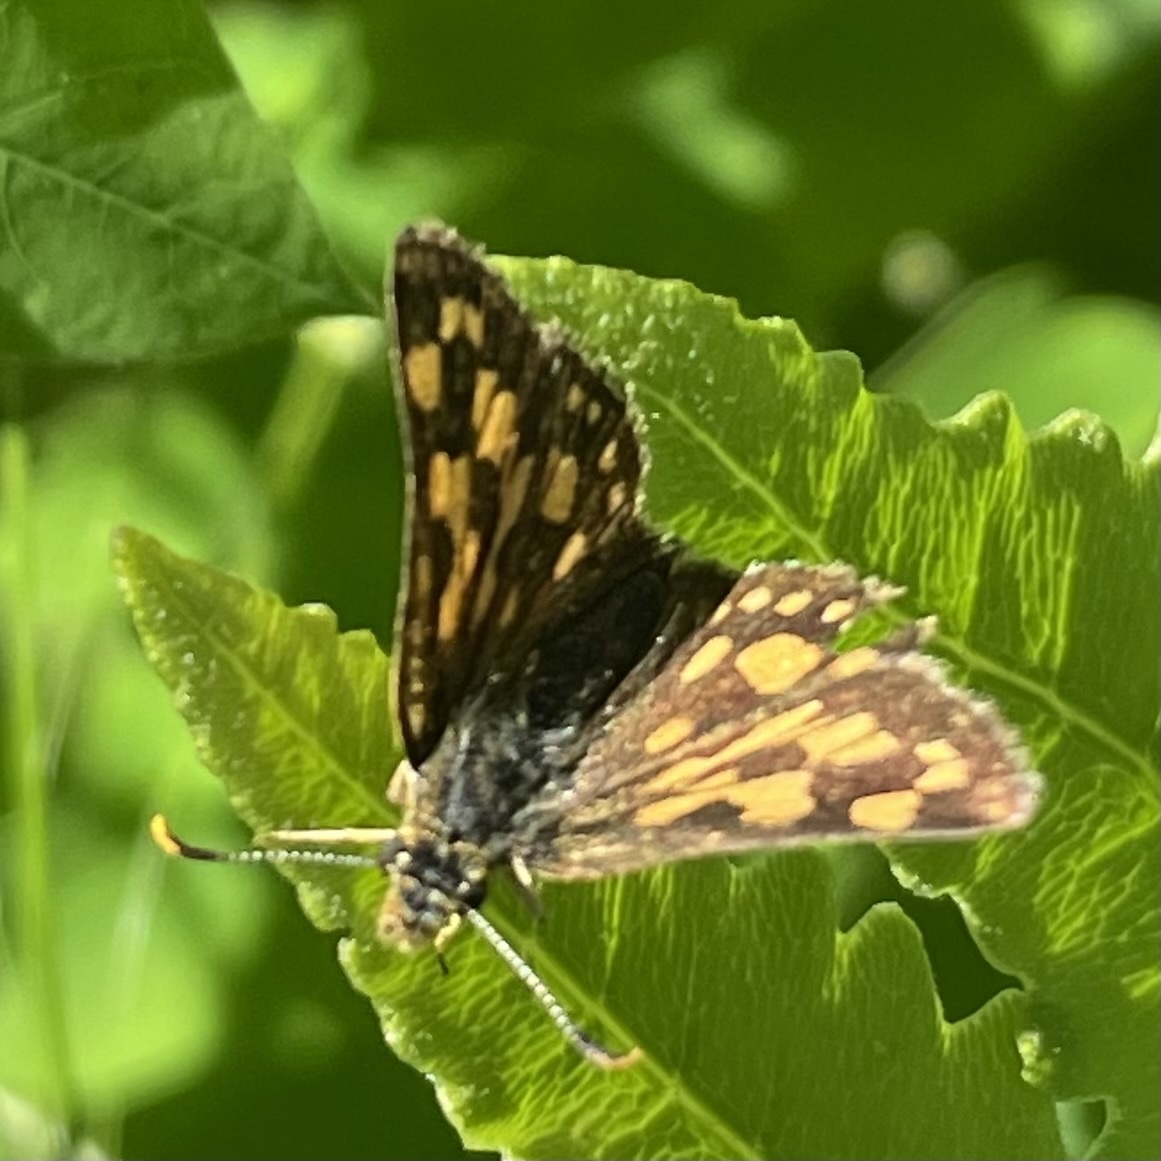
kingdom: Animalia
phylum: Arthropoda
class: Insecta
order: Lepidoptera
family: Hesperiidae
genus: Carterocephalus
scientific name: Carterocephalus mandan
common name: Arctic skipperling
